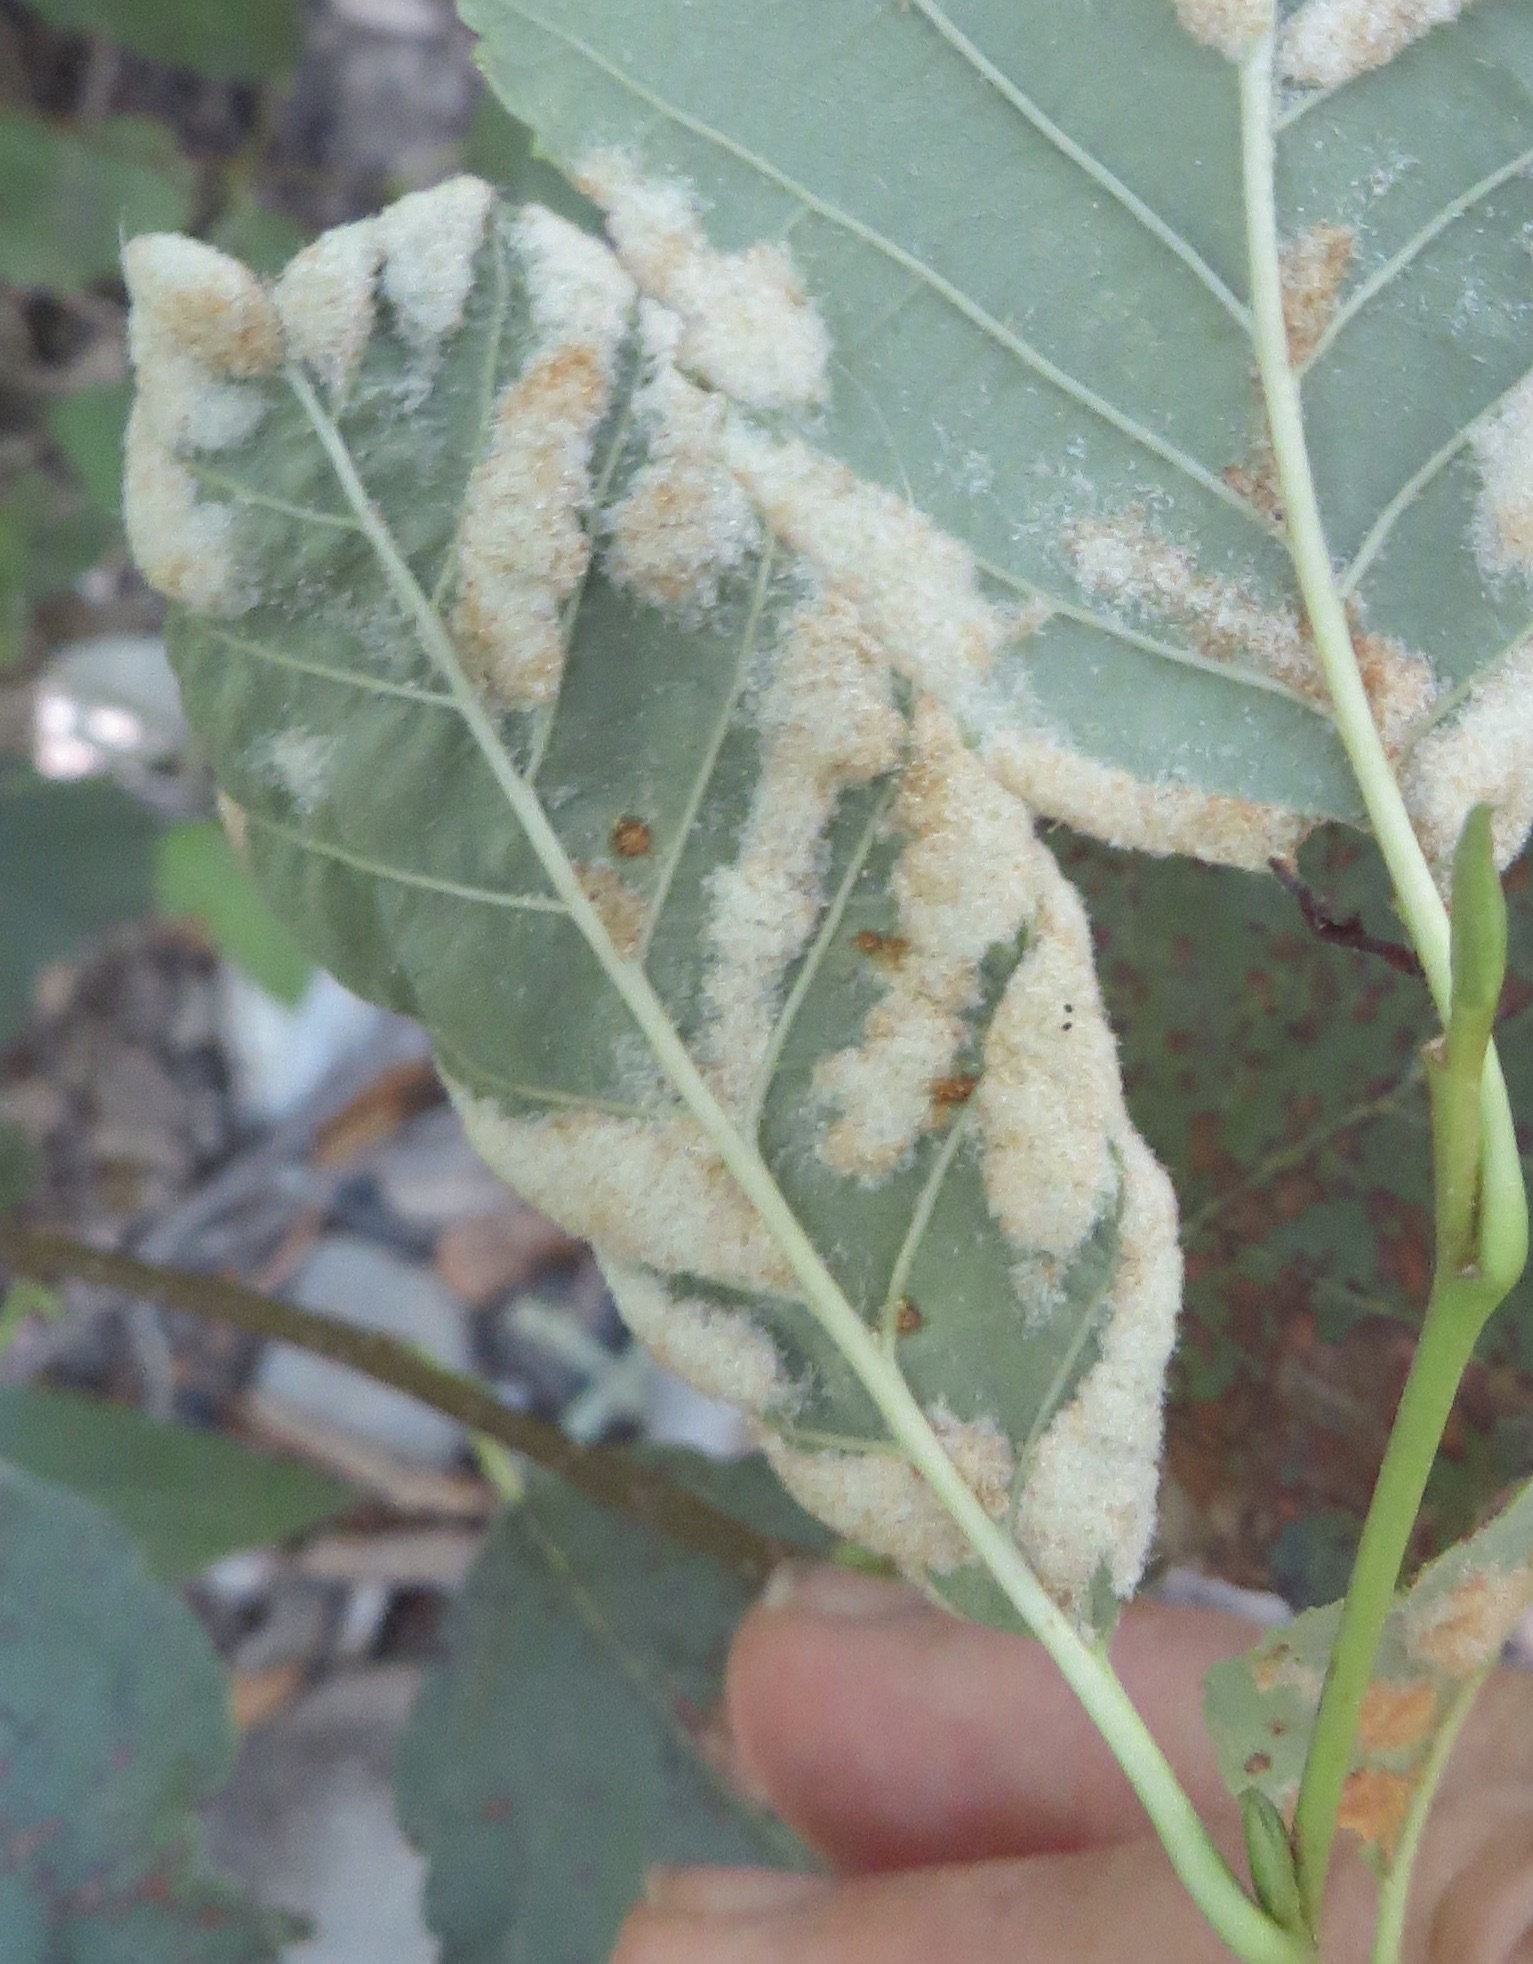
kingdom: Animalia
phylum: Arthropoda
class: Arachnida
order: Trombidiformes
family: Eriophyidae
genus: Acalitus
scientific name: Acalitus brevitarsus
